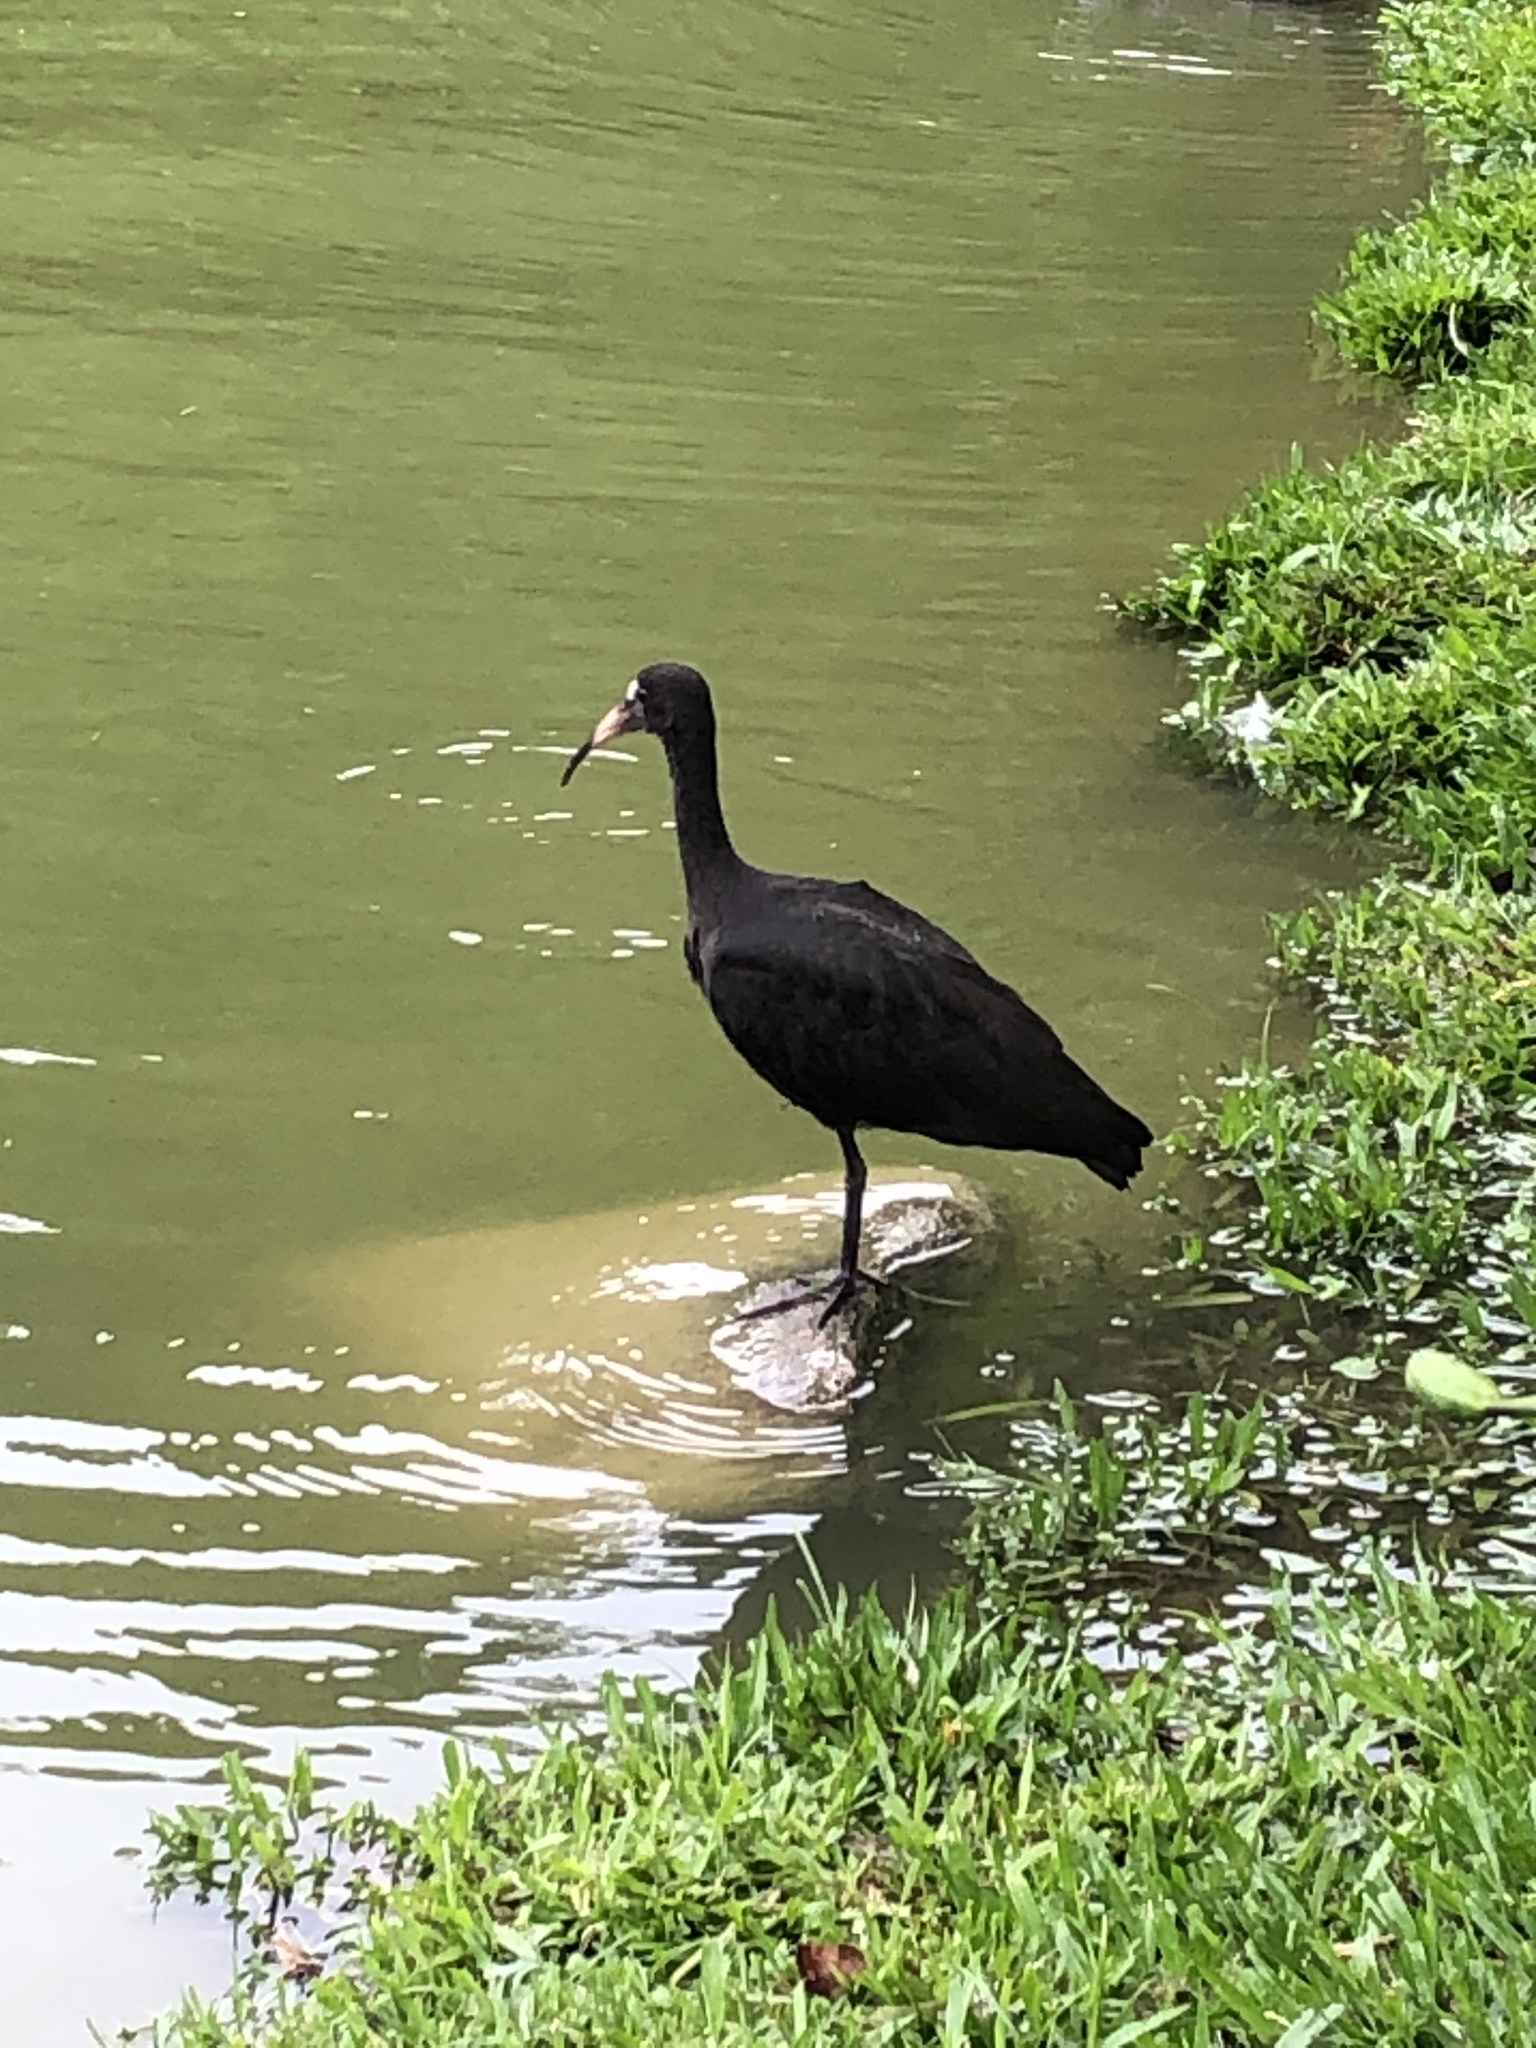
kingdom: Animalia
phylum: Chordata
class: Aves
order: Pelecaniformes
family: Threskiornithidae
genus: Phimosus
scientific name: Phimosus infuscatus
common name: Bare-faced ibis
